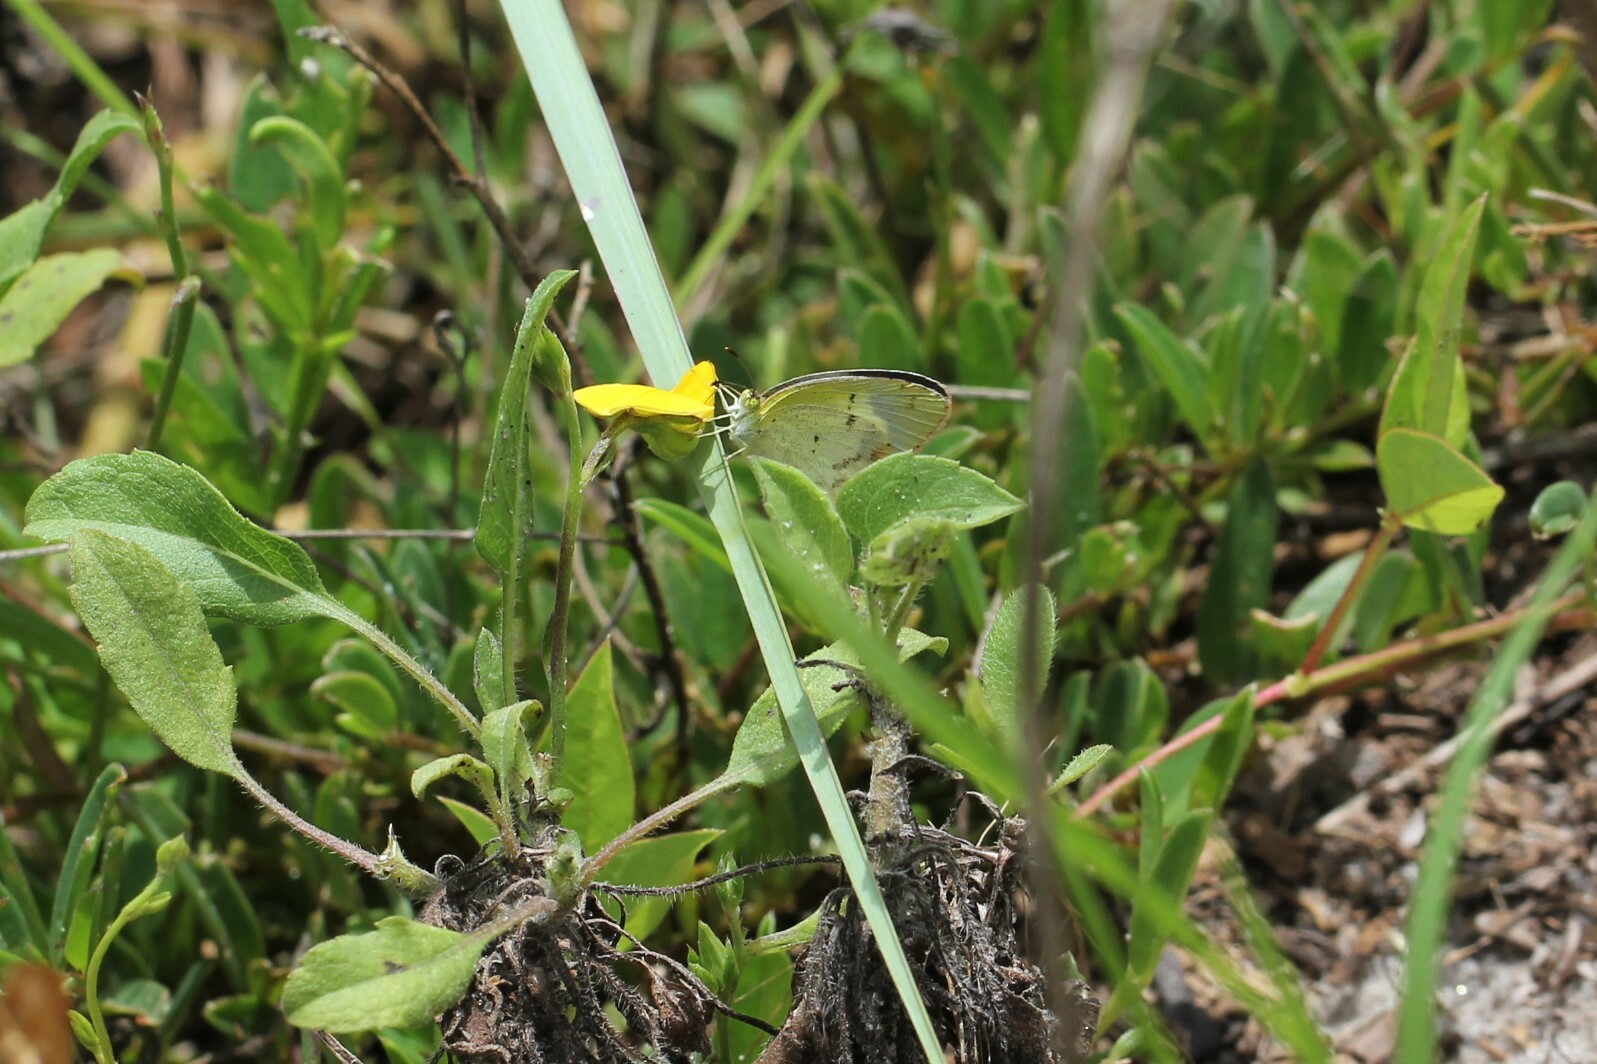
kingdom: Animalia
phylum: Arthropoda
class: Insecta
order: Lepidoptera
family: Pieridae
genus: Pyrisitia
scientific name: Pyrisitia lisa
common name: Little yellow
